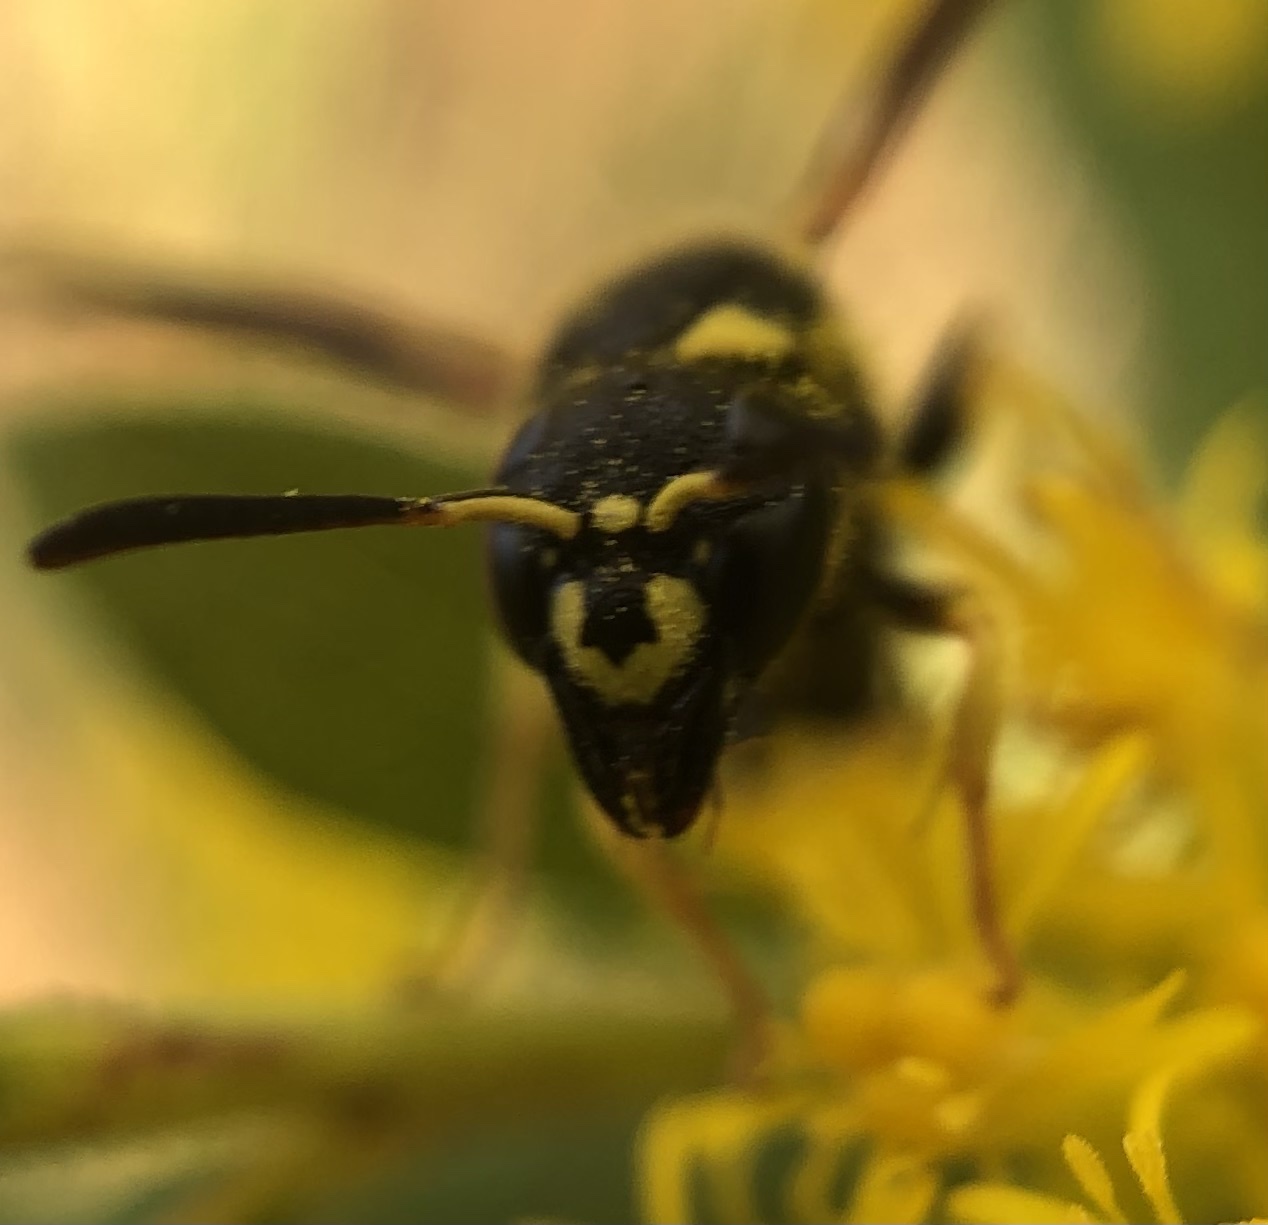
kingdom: Animalia
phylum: Arthropoda
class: Insecta
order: Hymenoptera
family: Vespidae
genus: Ancistrocerus
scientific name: Ancistrocerus adiabatus
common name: Bramble mason wasp
